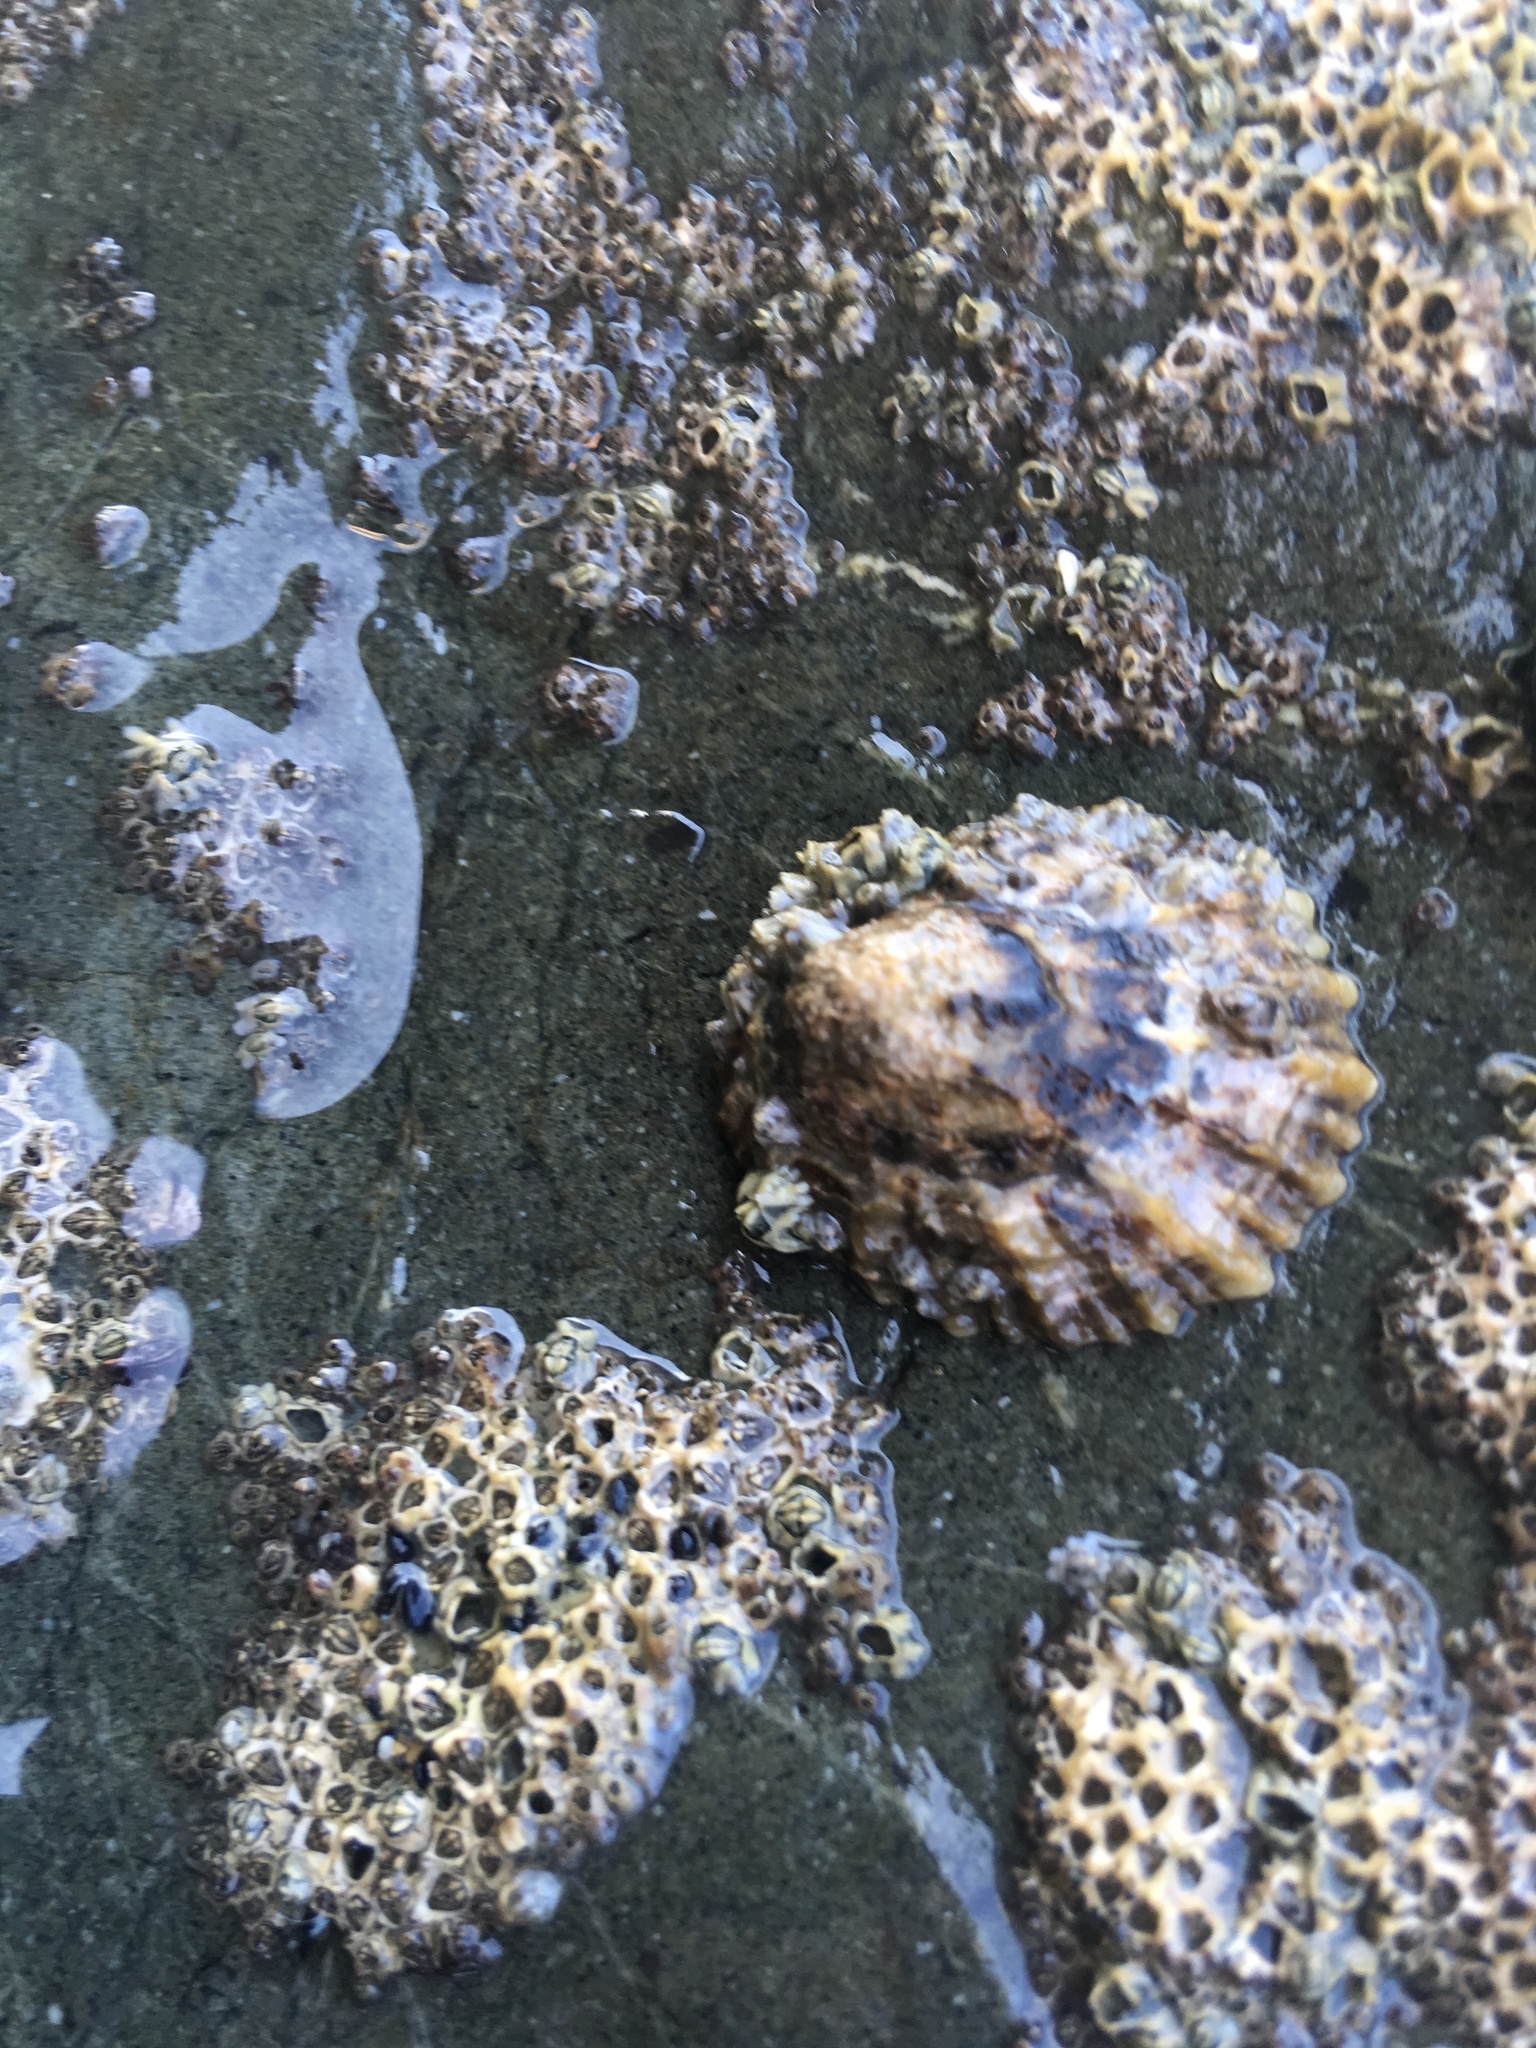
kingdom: Animalia
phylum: Mollusca
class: Gastropoda
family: Nacellidae
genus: Cellana
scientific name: Cellana ornata
